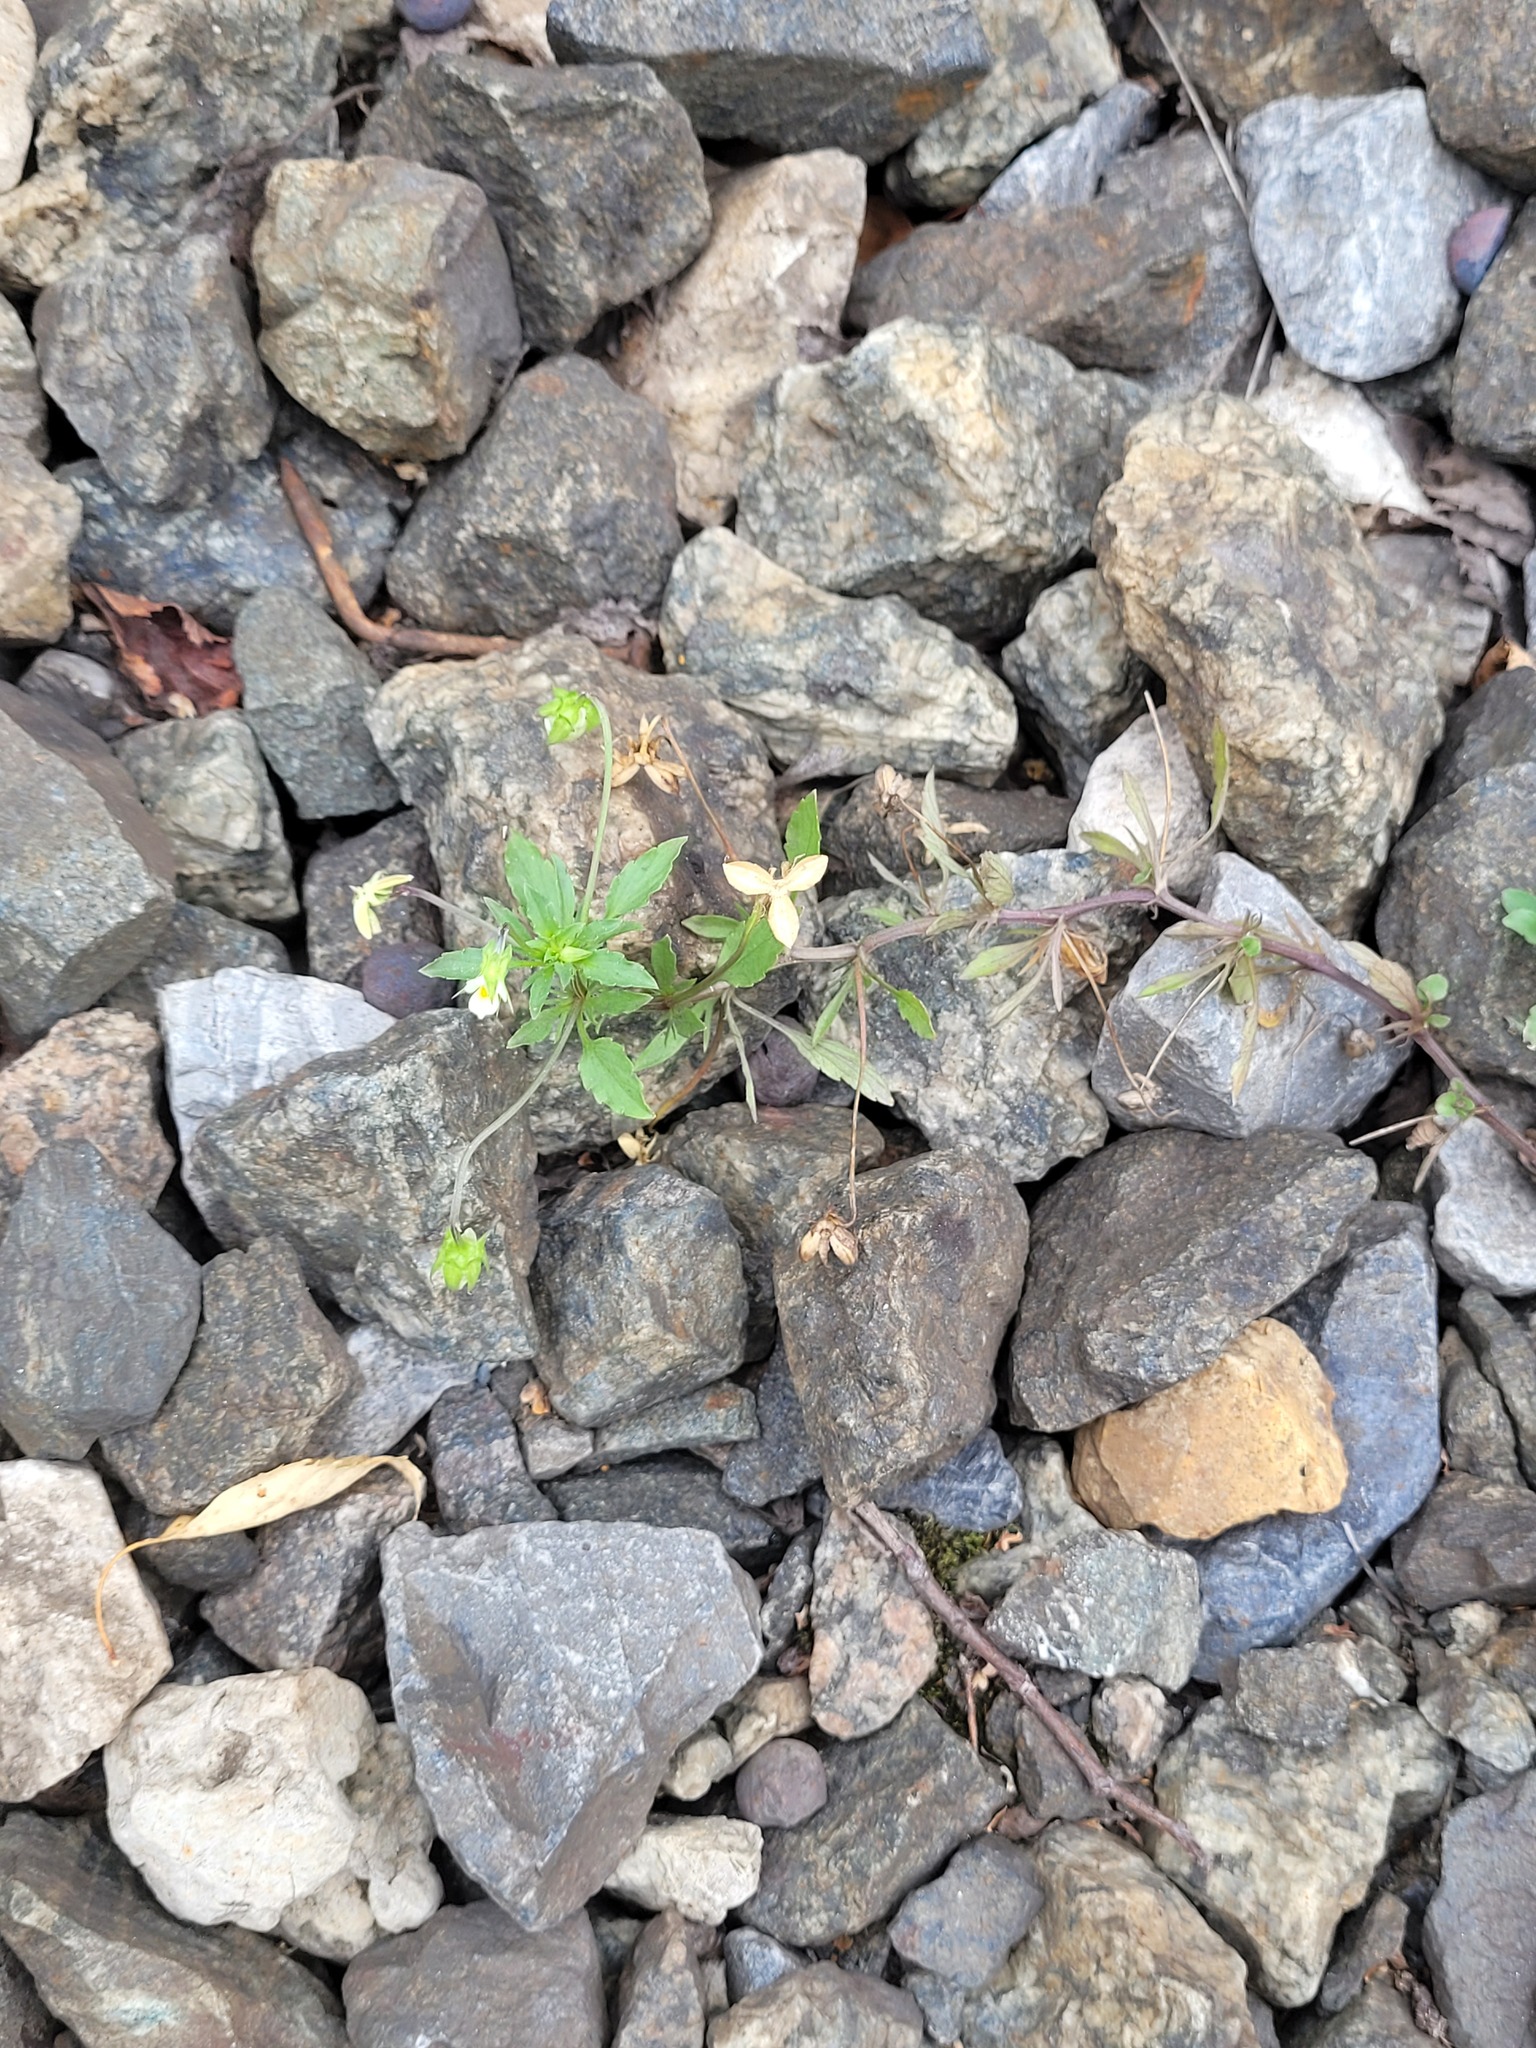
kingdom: Plantae
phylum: Tracheophyta
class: Magnoliopsida
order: Malpighiales
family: Violaceae
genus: Viola
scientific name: Viola arvensis
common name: Field pansy
